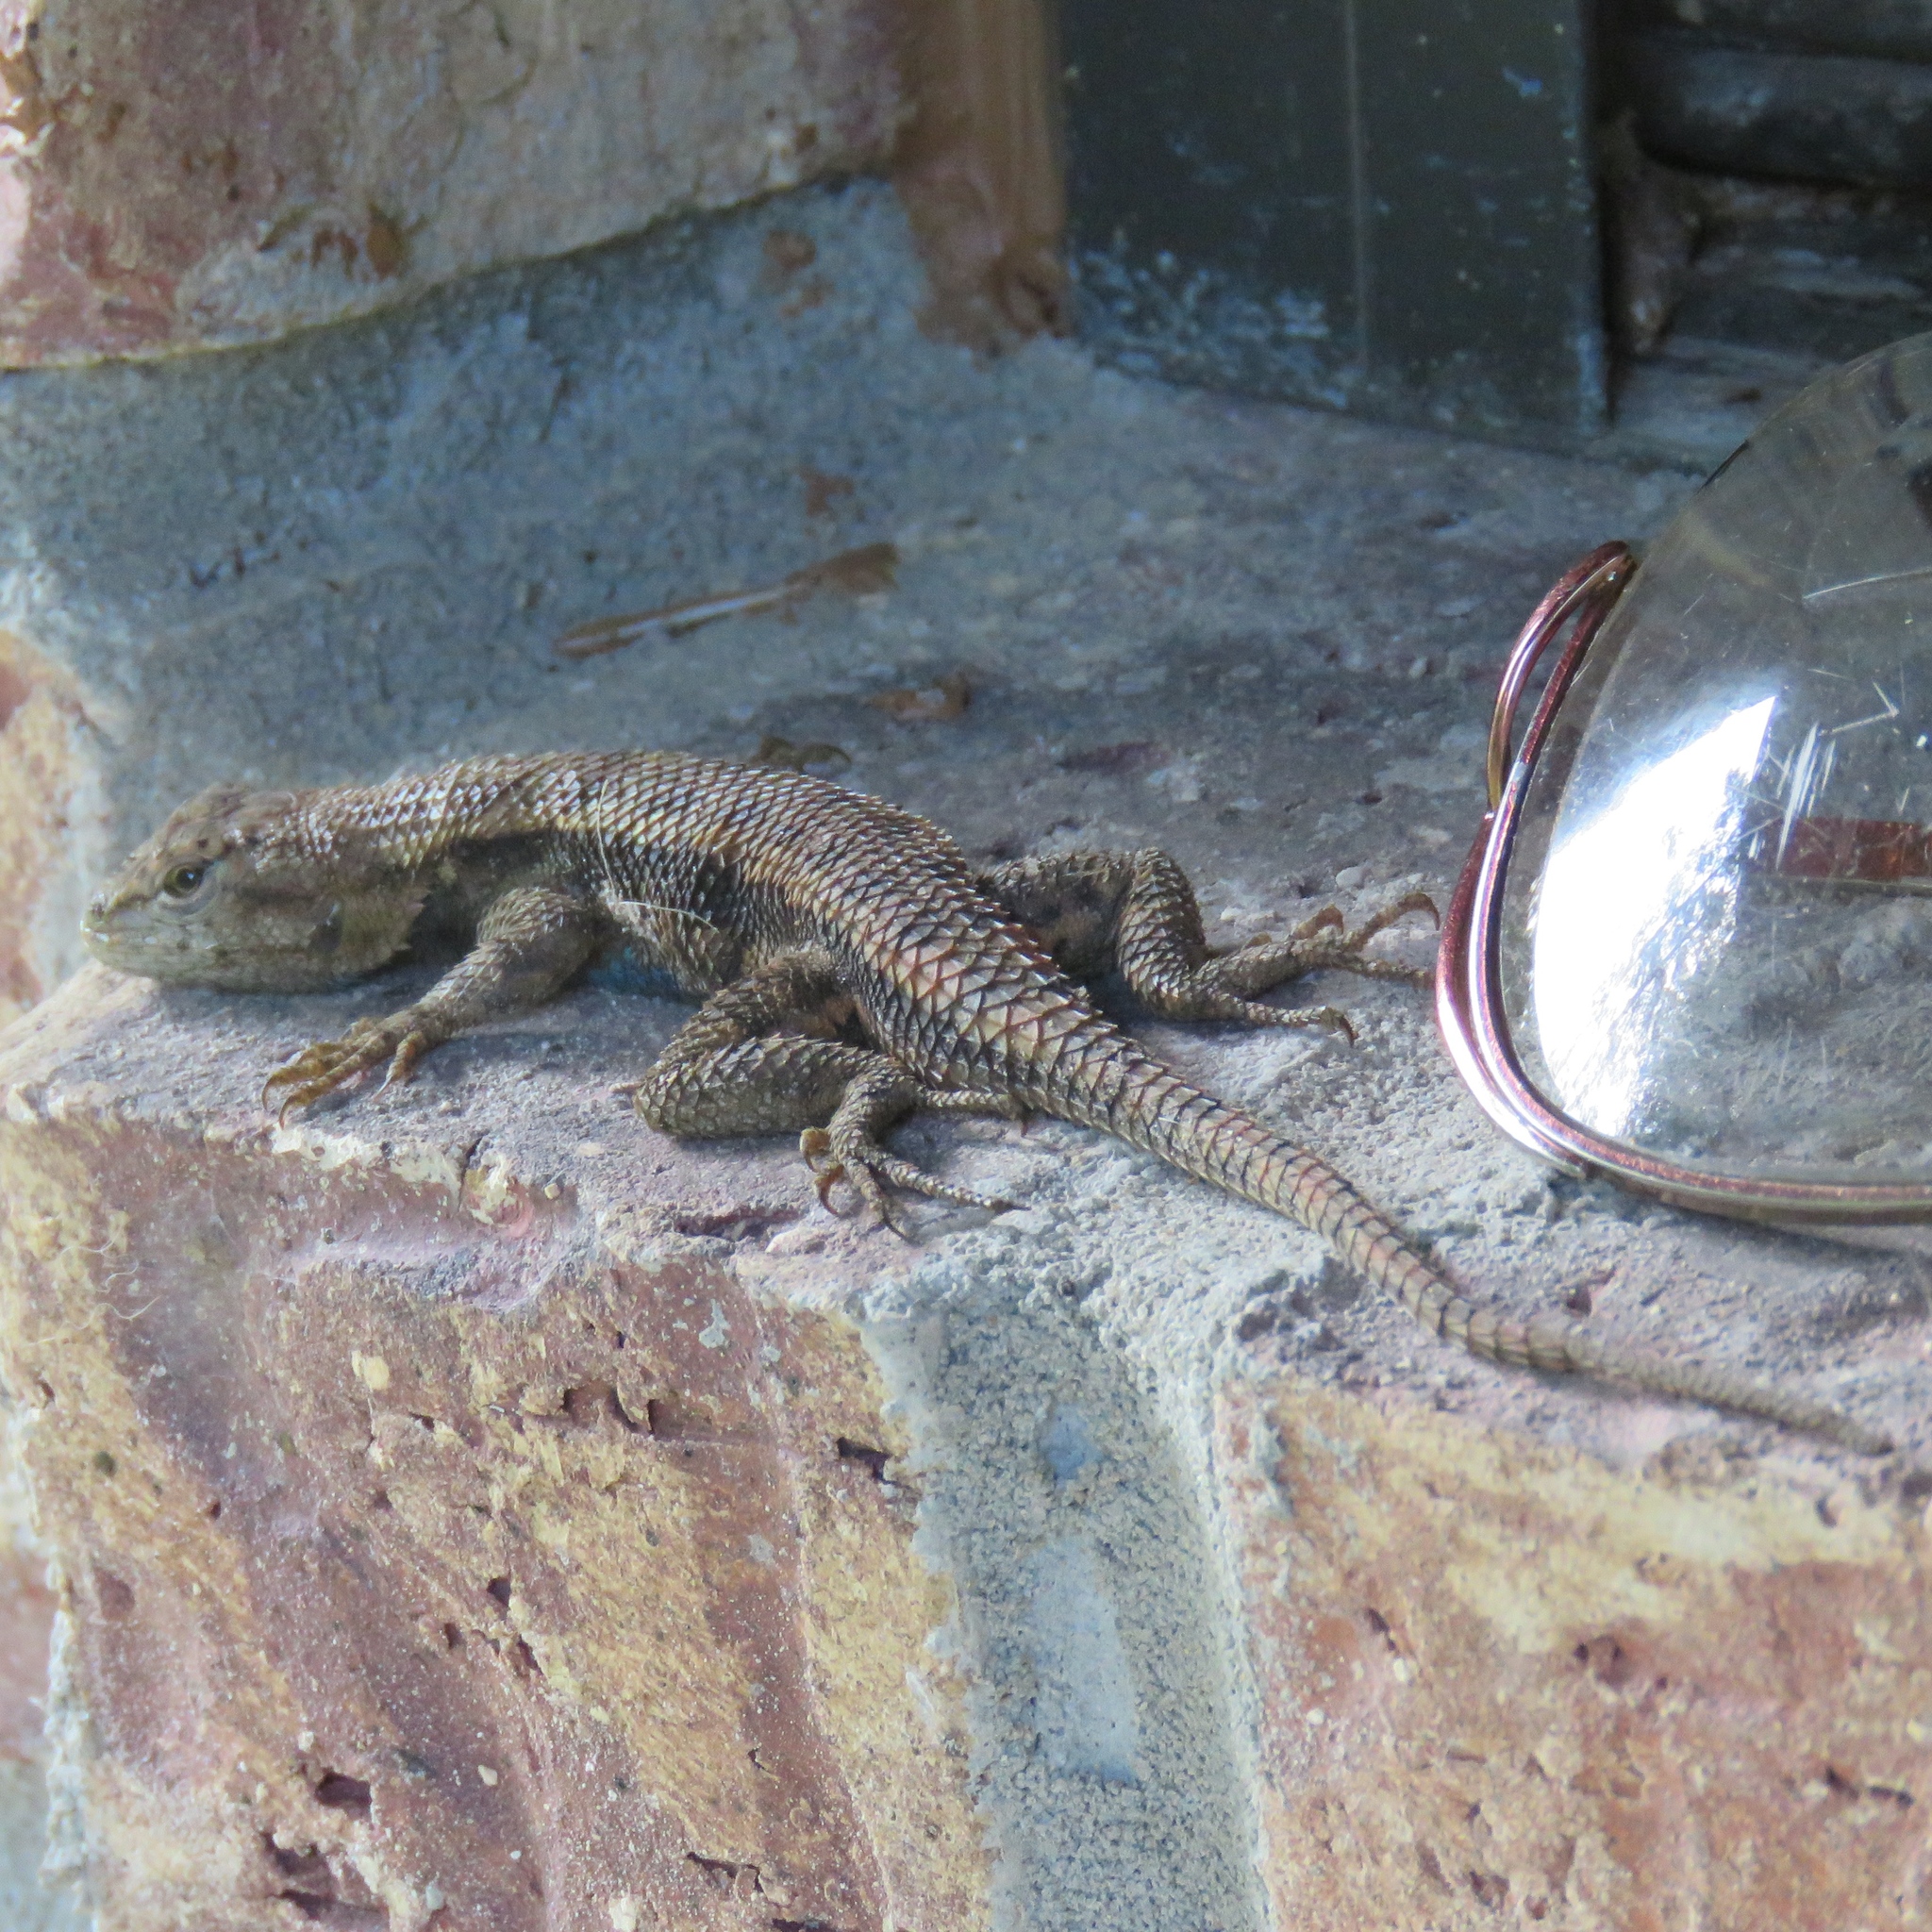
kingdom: Animalia
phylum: Chordata
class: Squamata
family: Phrynosomatidae
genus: Sceloporus
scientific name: Sceloporus consobrinus
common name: Southern prairie lizard
